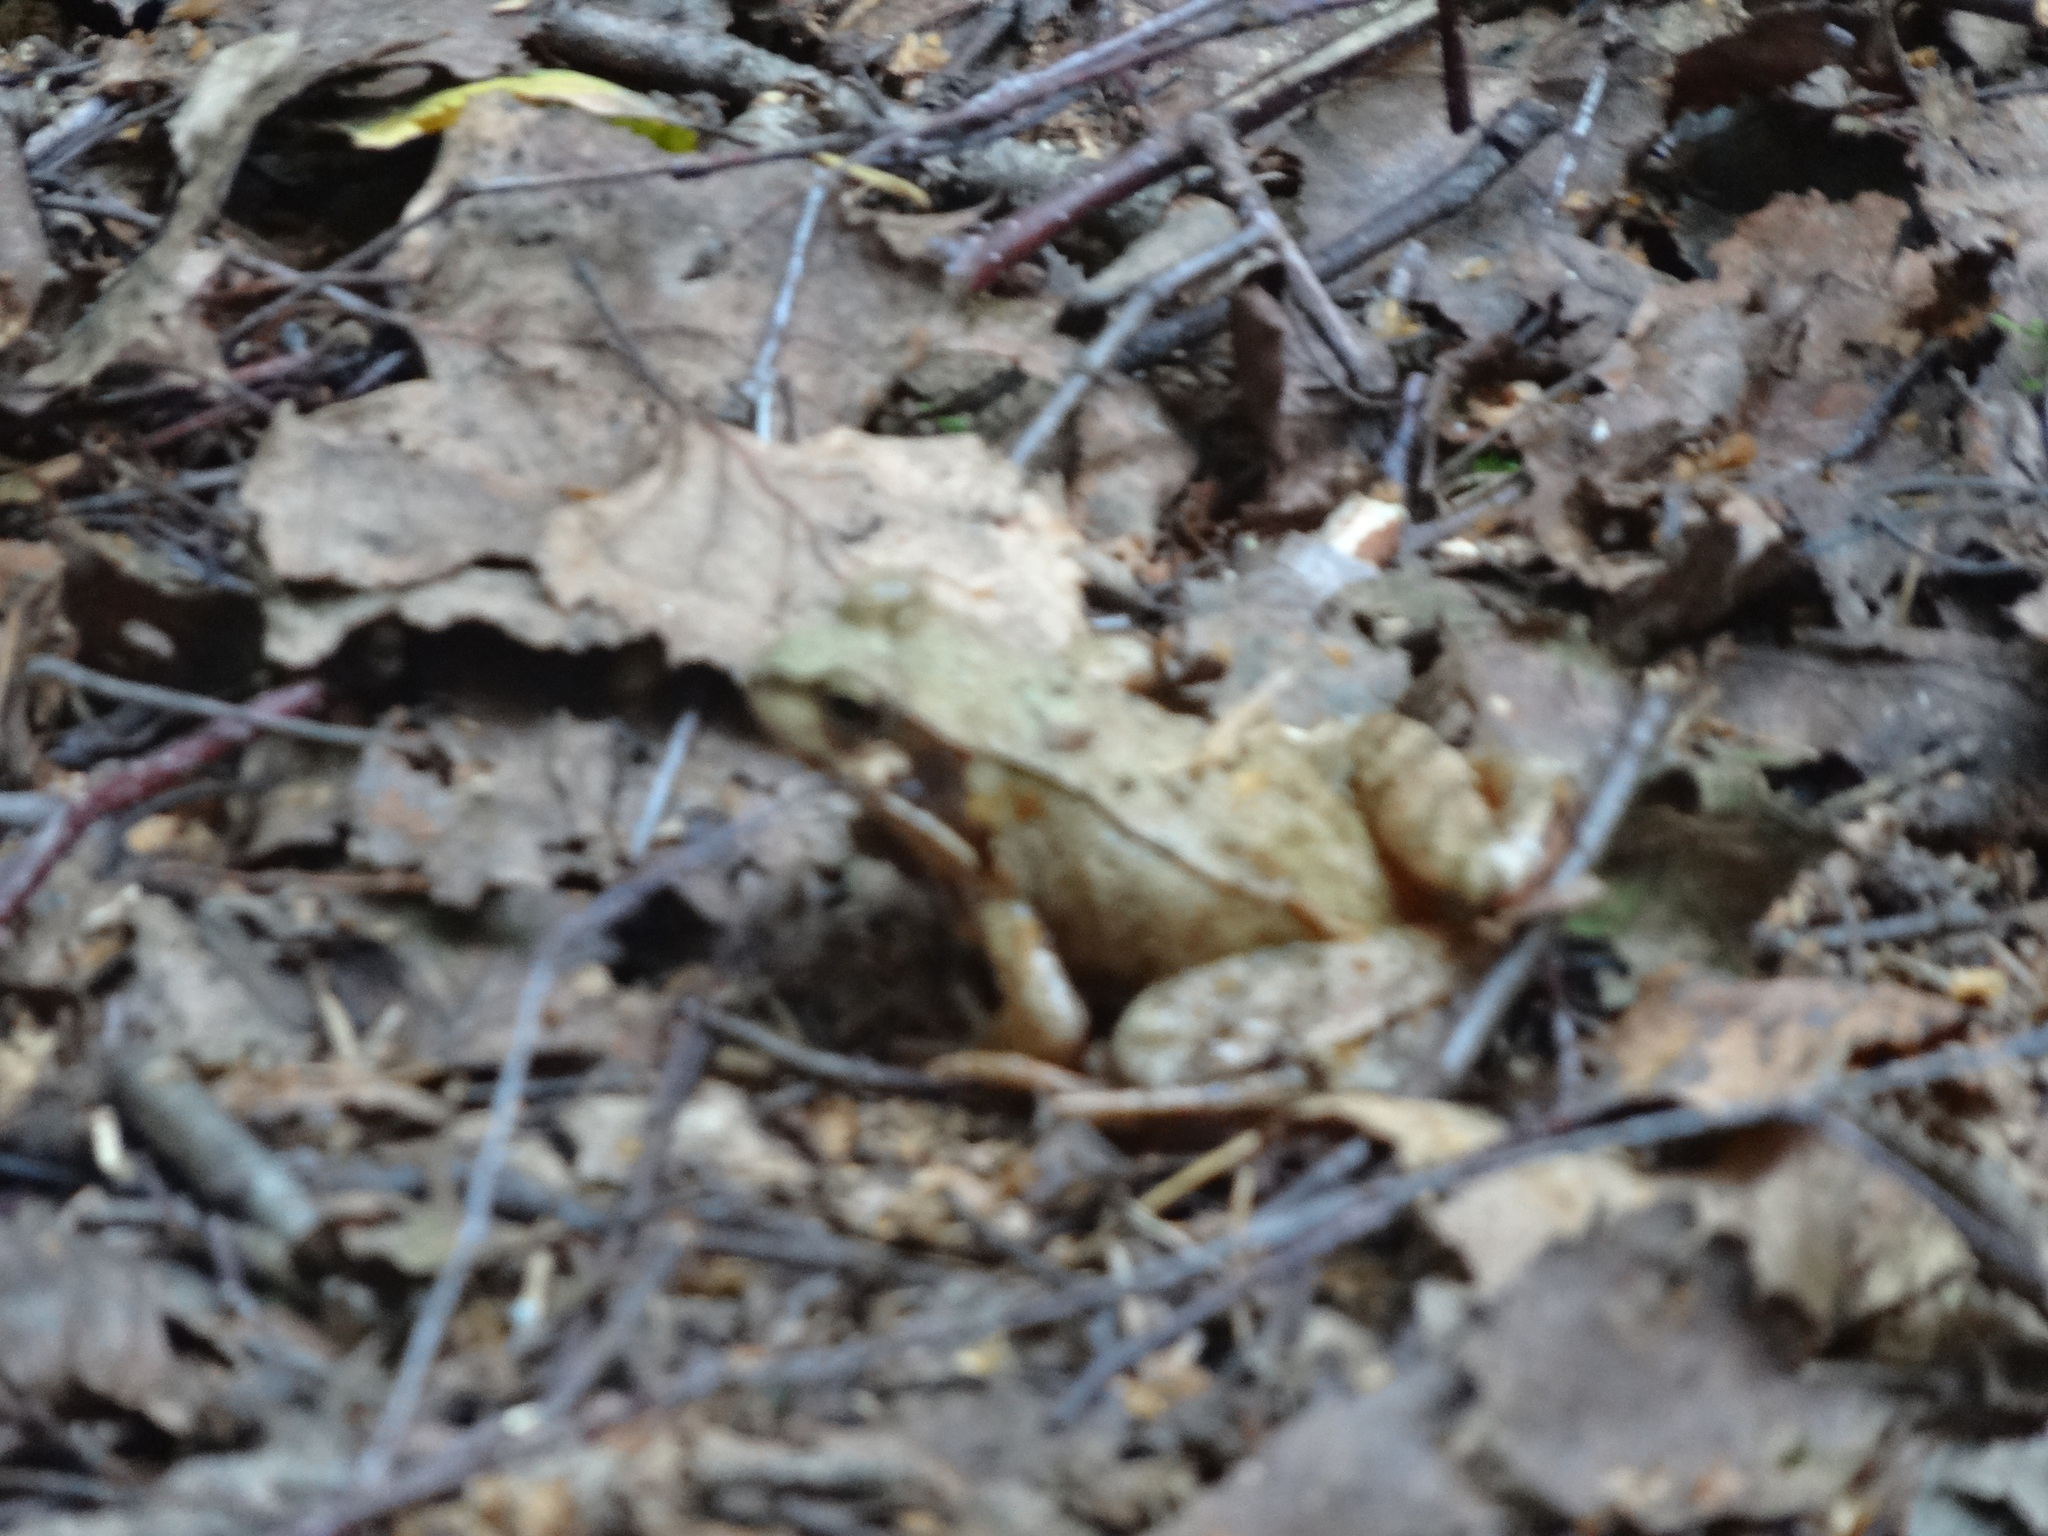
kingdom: Animalia
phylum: Chordata
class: Amphibia
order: Anura
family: Ranidae
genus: Rana
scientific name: Rana temporaria
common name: Common frog
